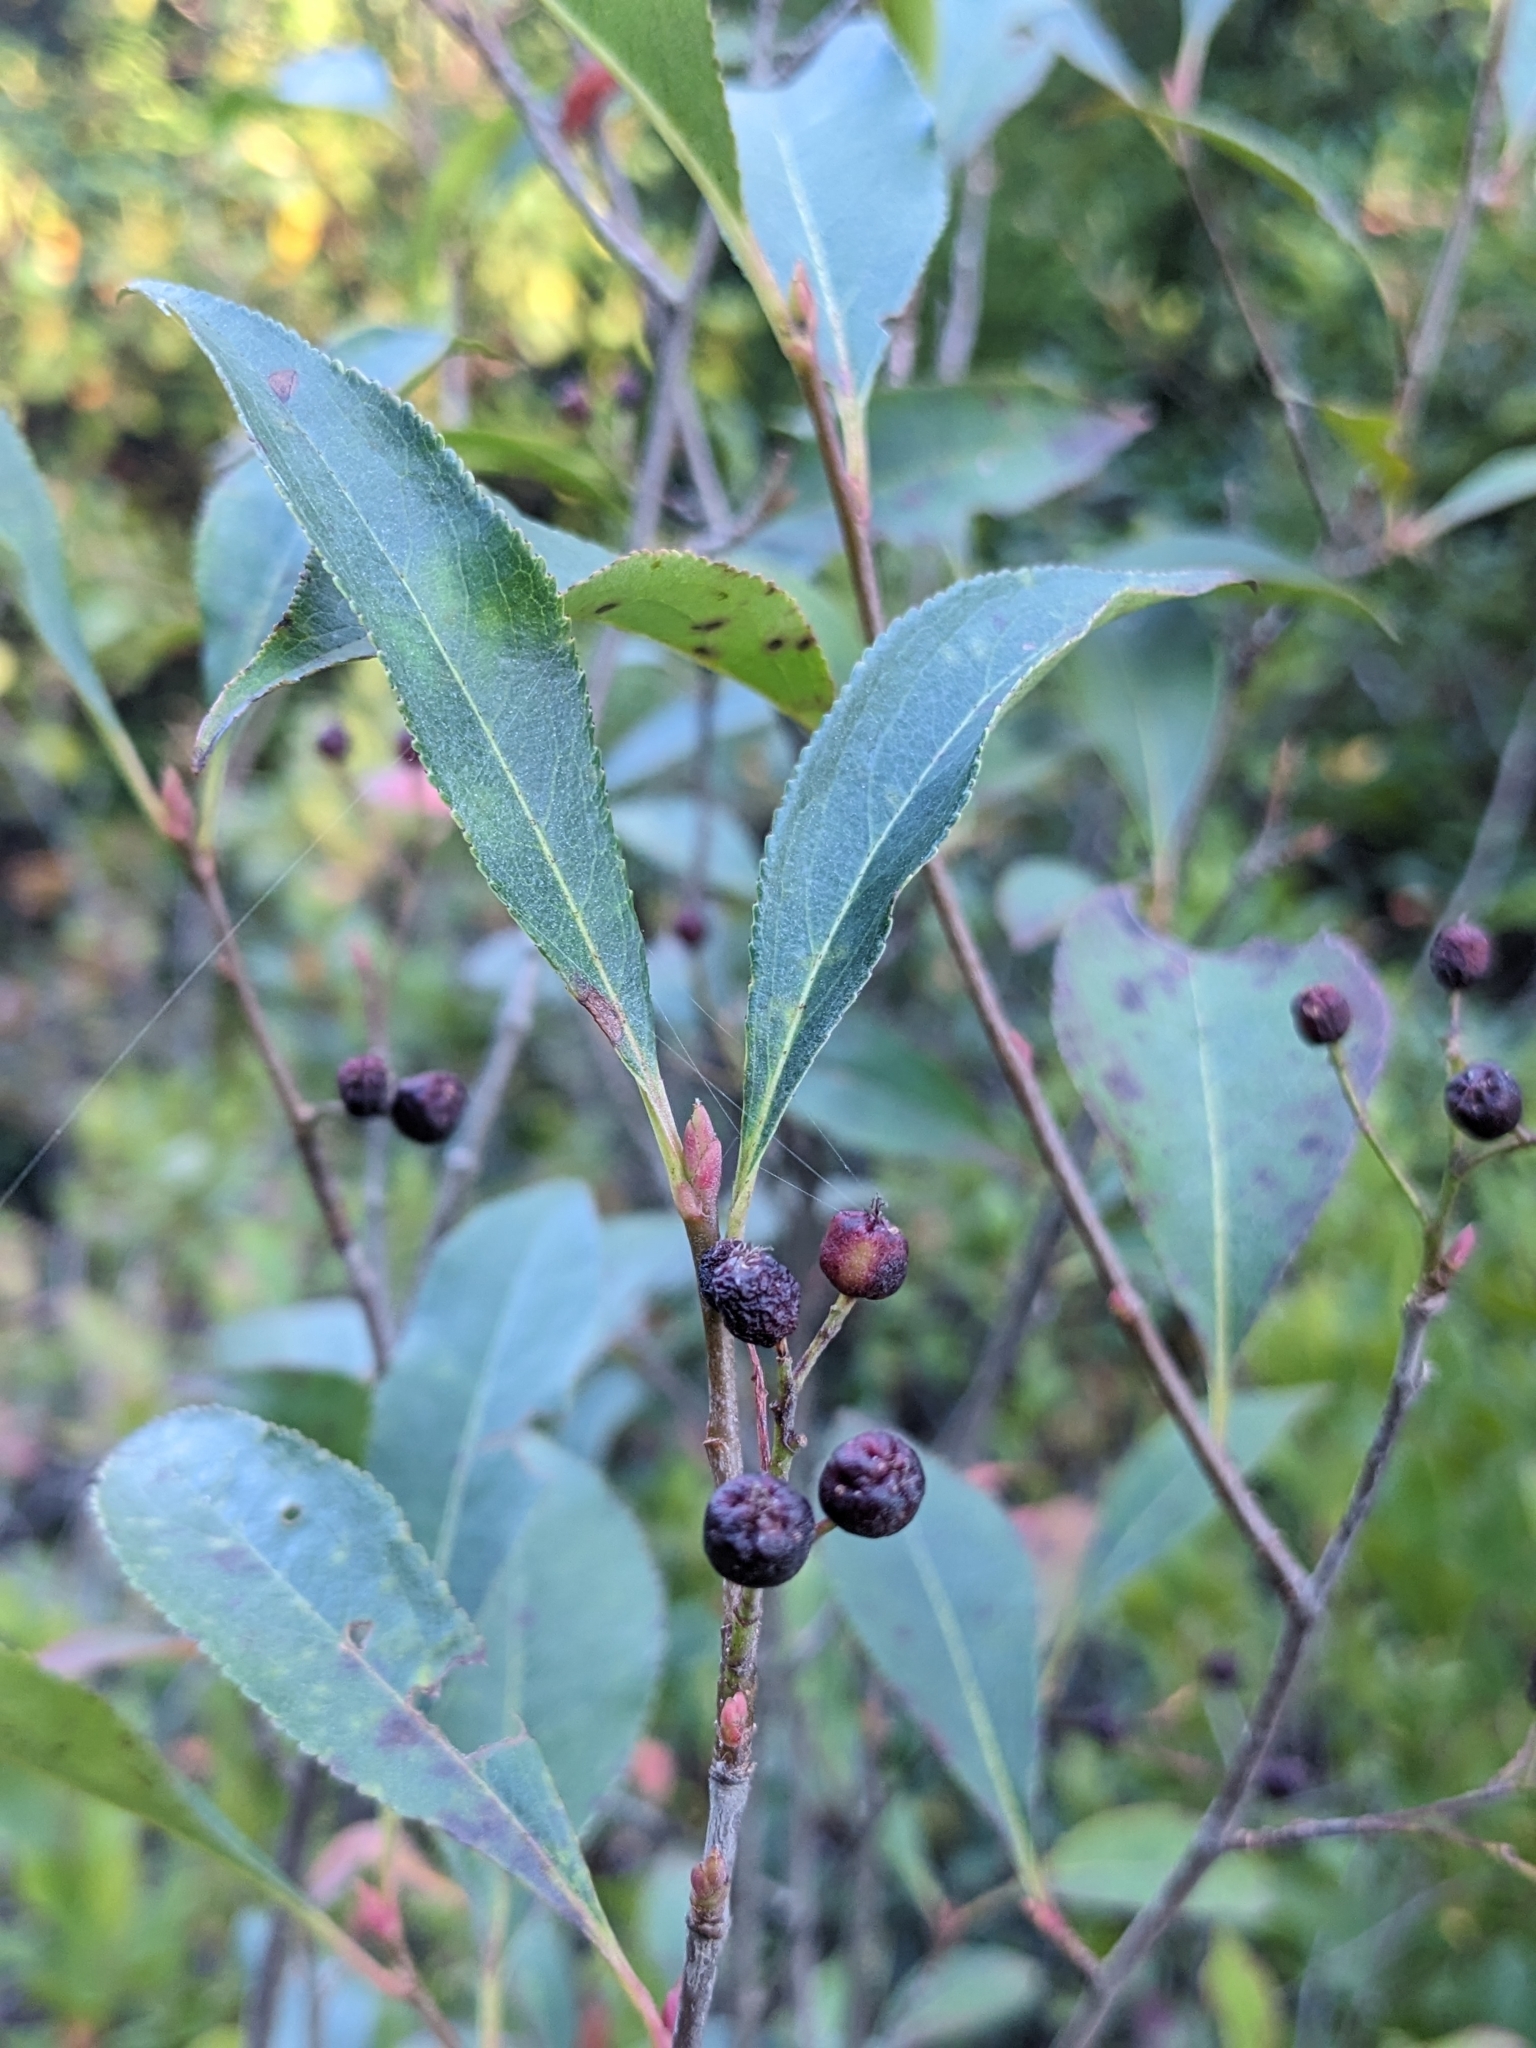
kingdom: Plantae
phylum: Tracheophyta
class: Magnoliopsida
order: Rosales
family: Rosaceae
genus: Aronia
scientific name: Aronia melanocarpa
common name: Black chokeberry
